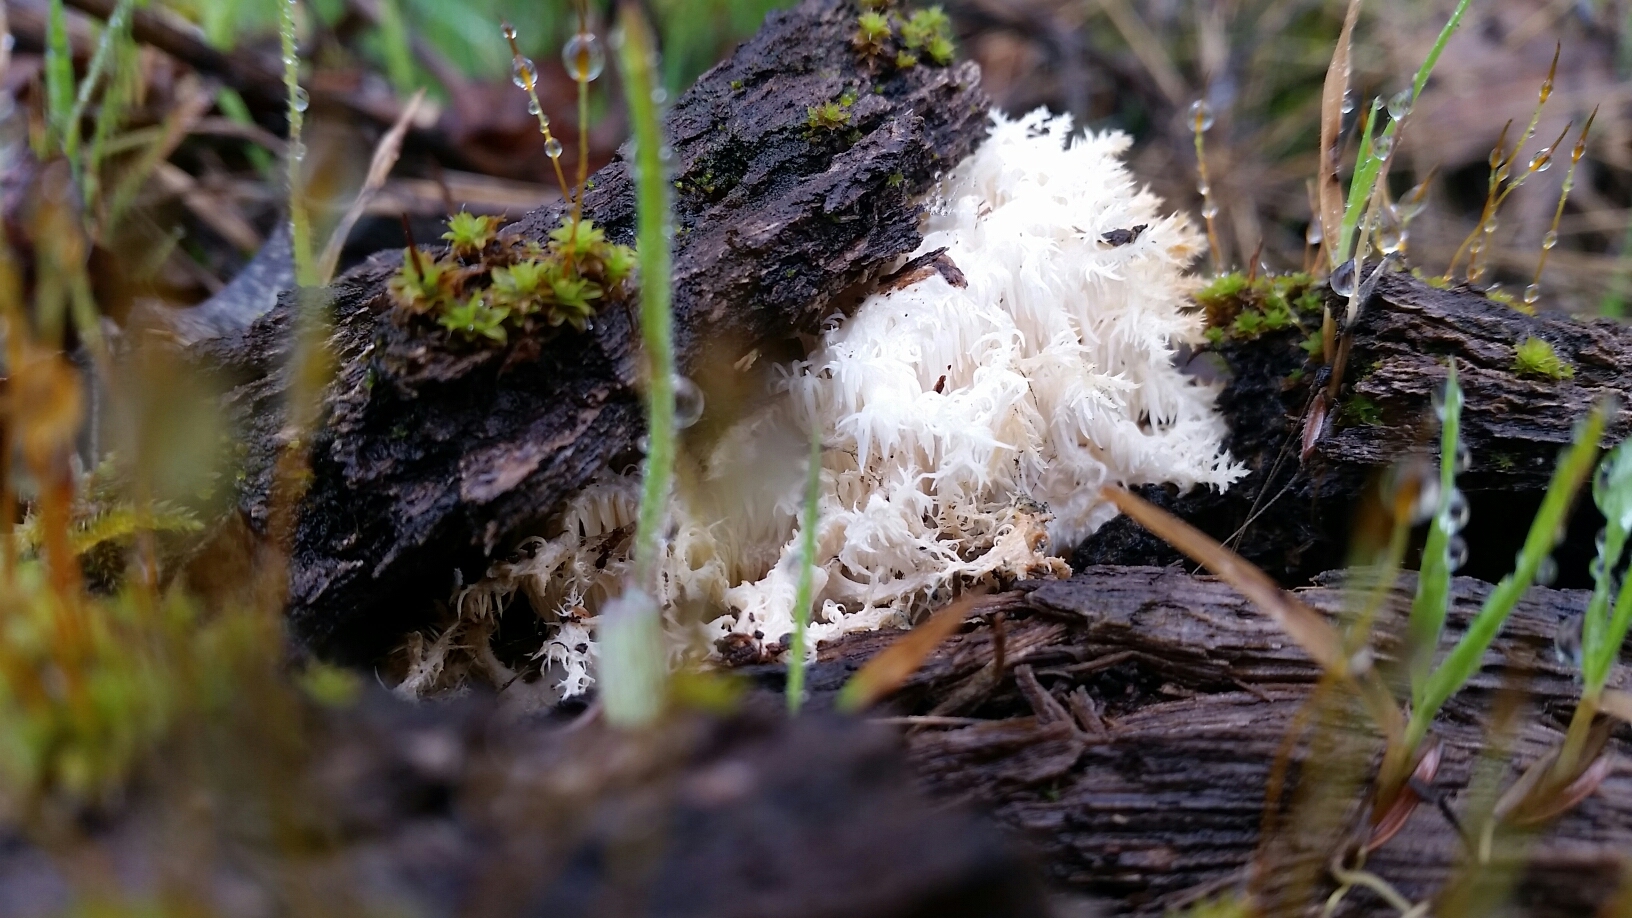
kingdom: Fungi
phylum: Basidiomycota
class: Agaricomycetes
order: Russulales
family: Hericiaceae
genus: Hericium
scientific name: Hericium coralloides
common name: Coral tooth
